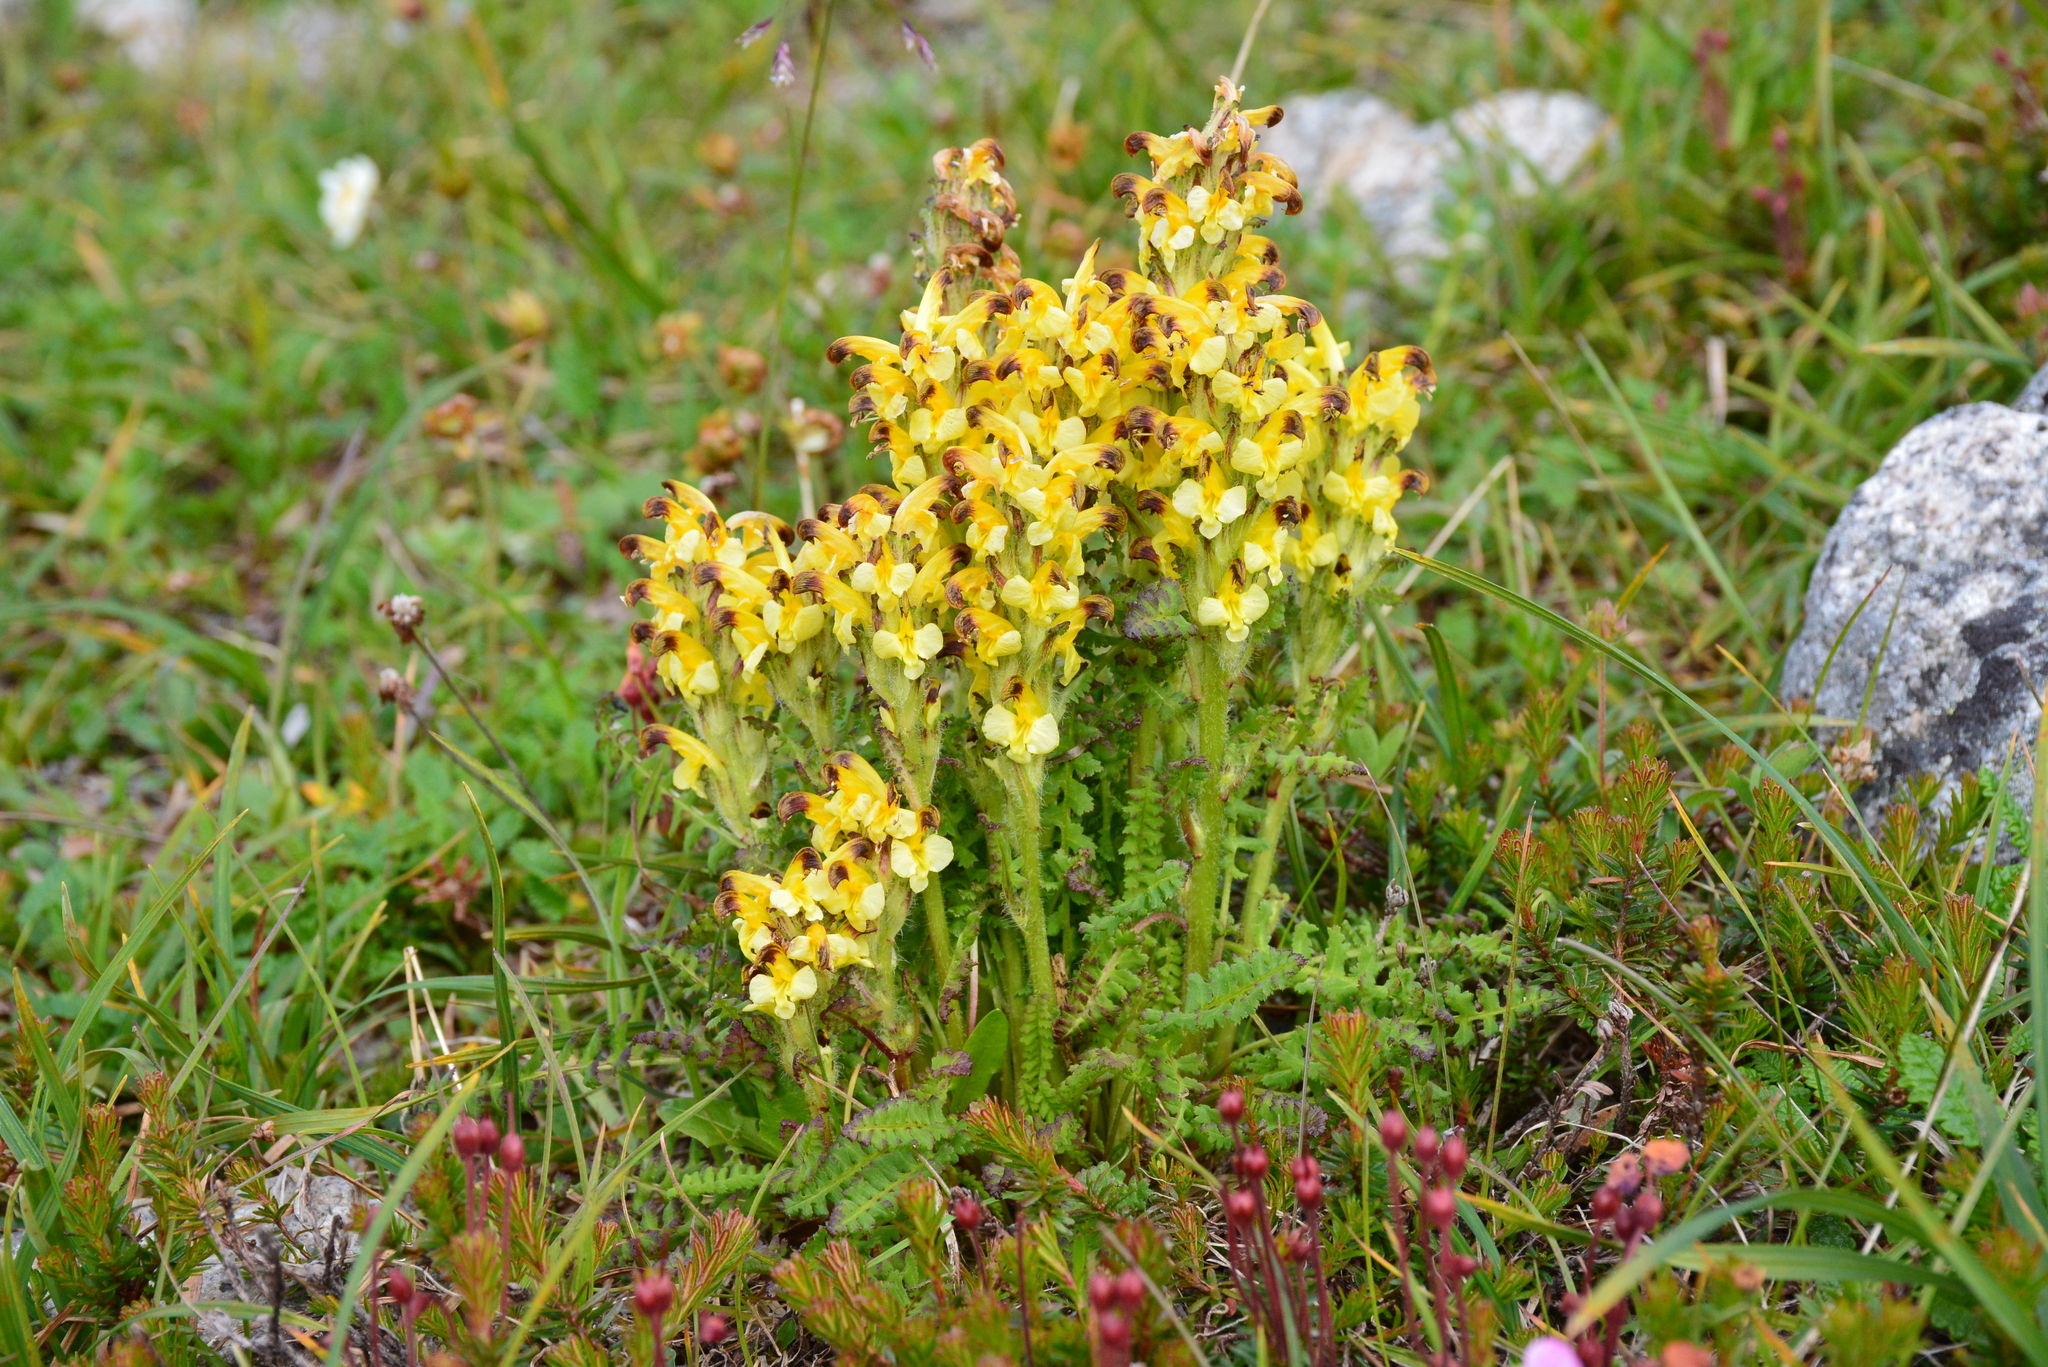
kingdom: Plantae
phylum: Tracheophyta
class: Magnoliopsida
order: Lamiales
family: Orobanchaceae
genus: Pedicularis
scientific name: Pedicularis oederi
